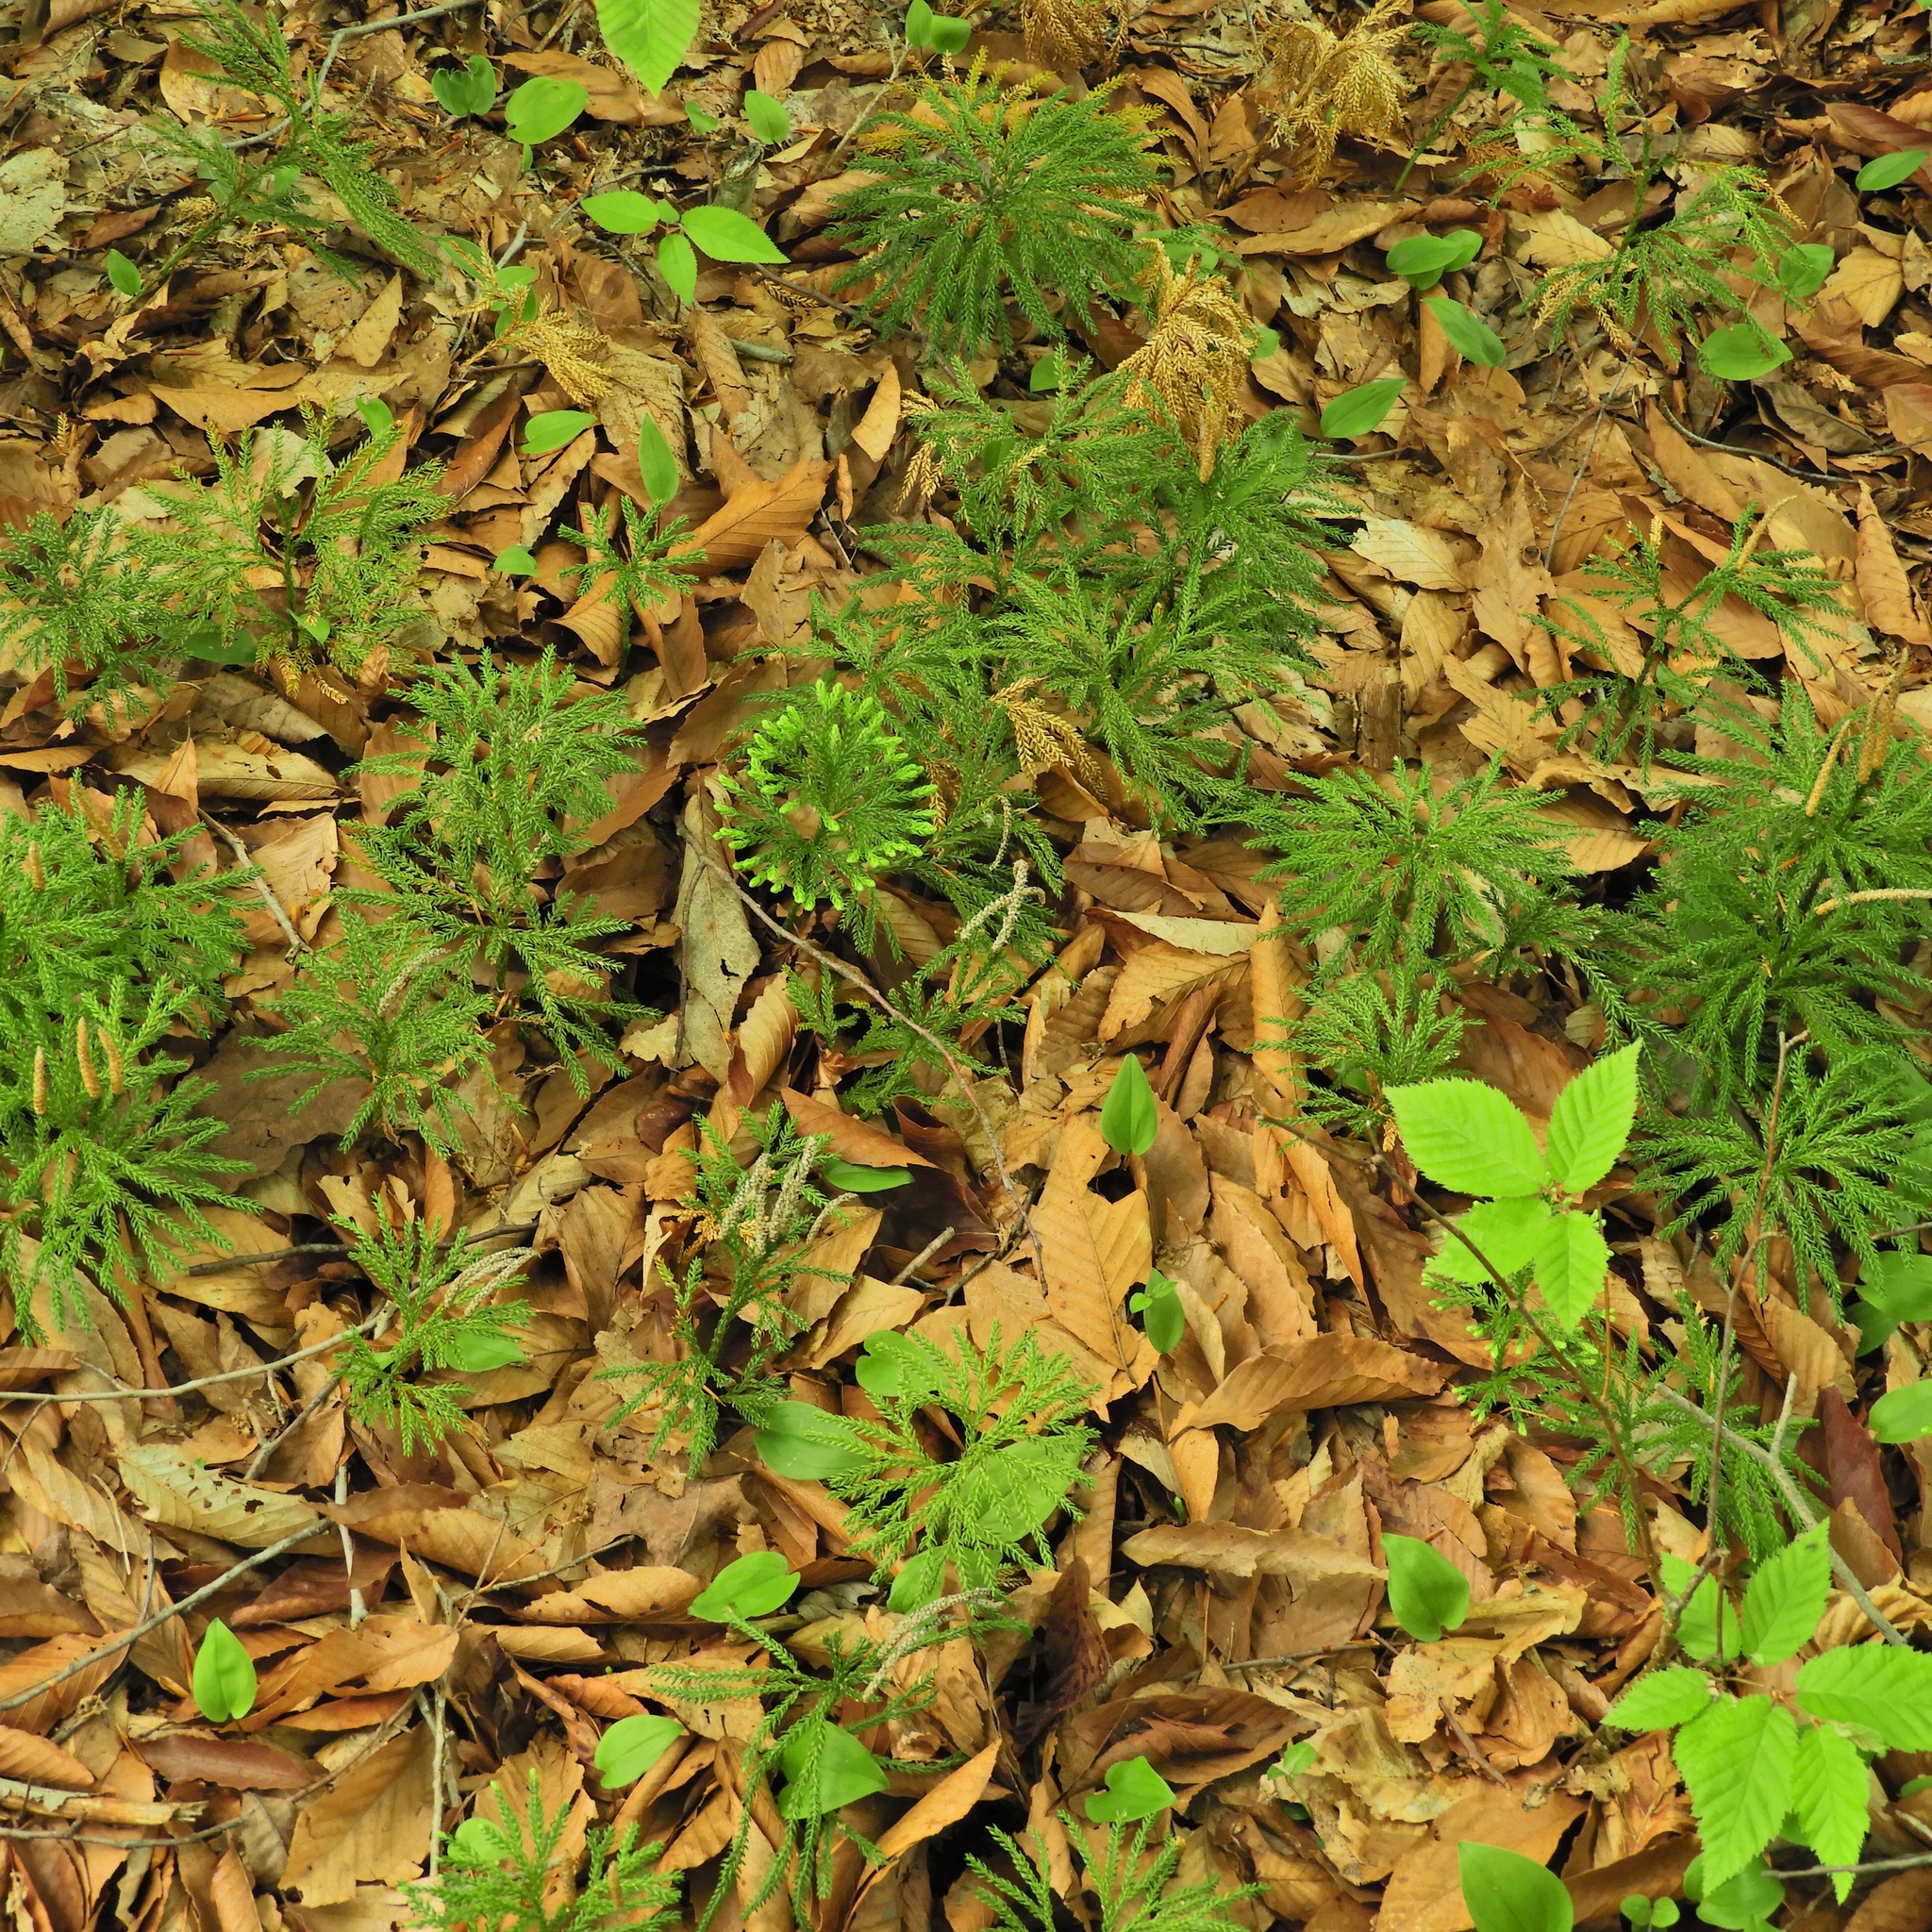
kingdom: Plantae
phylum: Tracheophyta
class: Lycopodiopsida
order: Lycopodiales
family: Lycopodiaceae
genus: Dendrolycopodium
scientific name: Dendrolycopodium obscurum
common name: Common ground-pine
